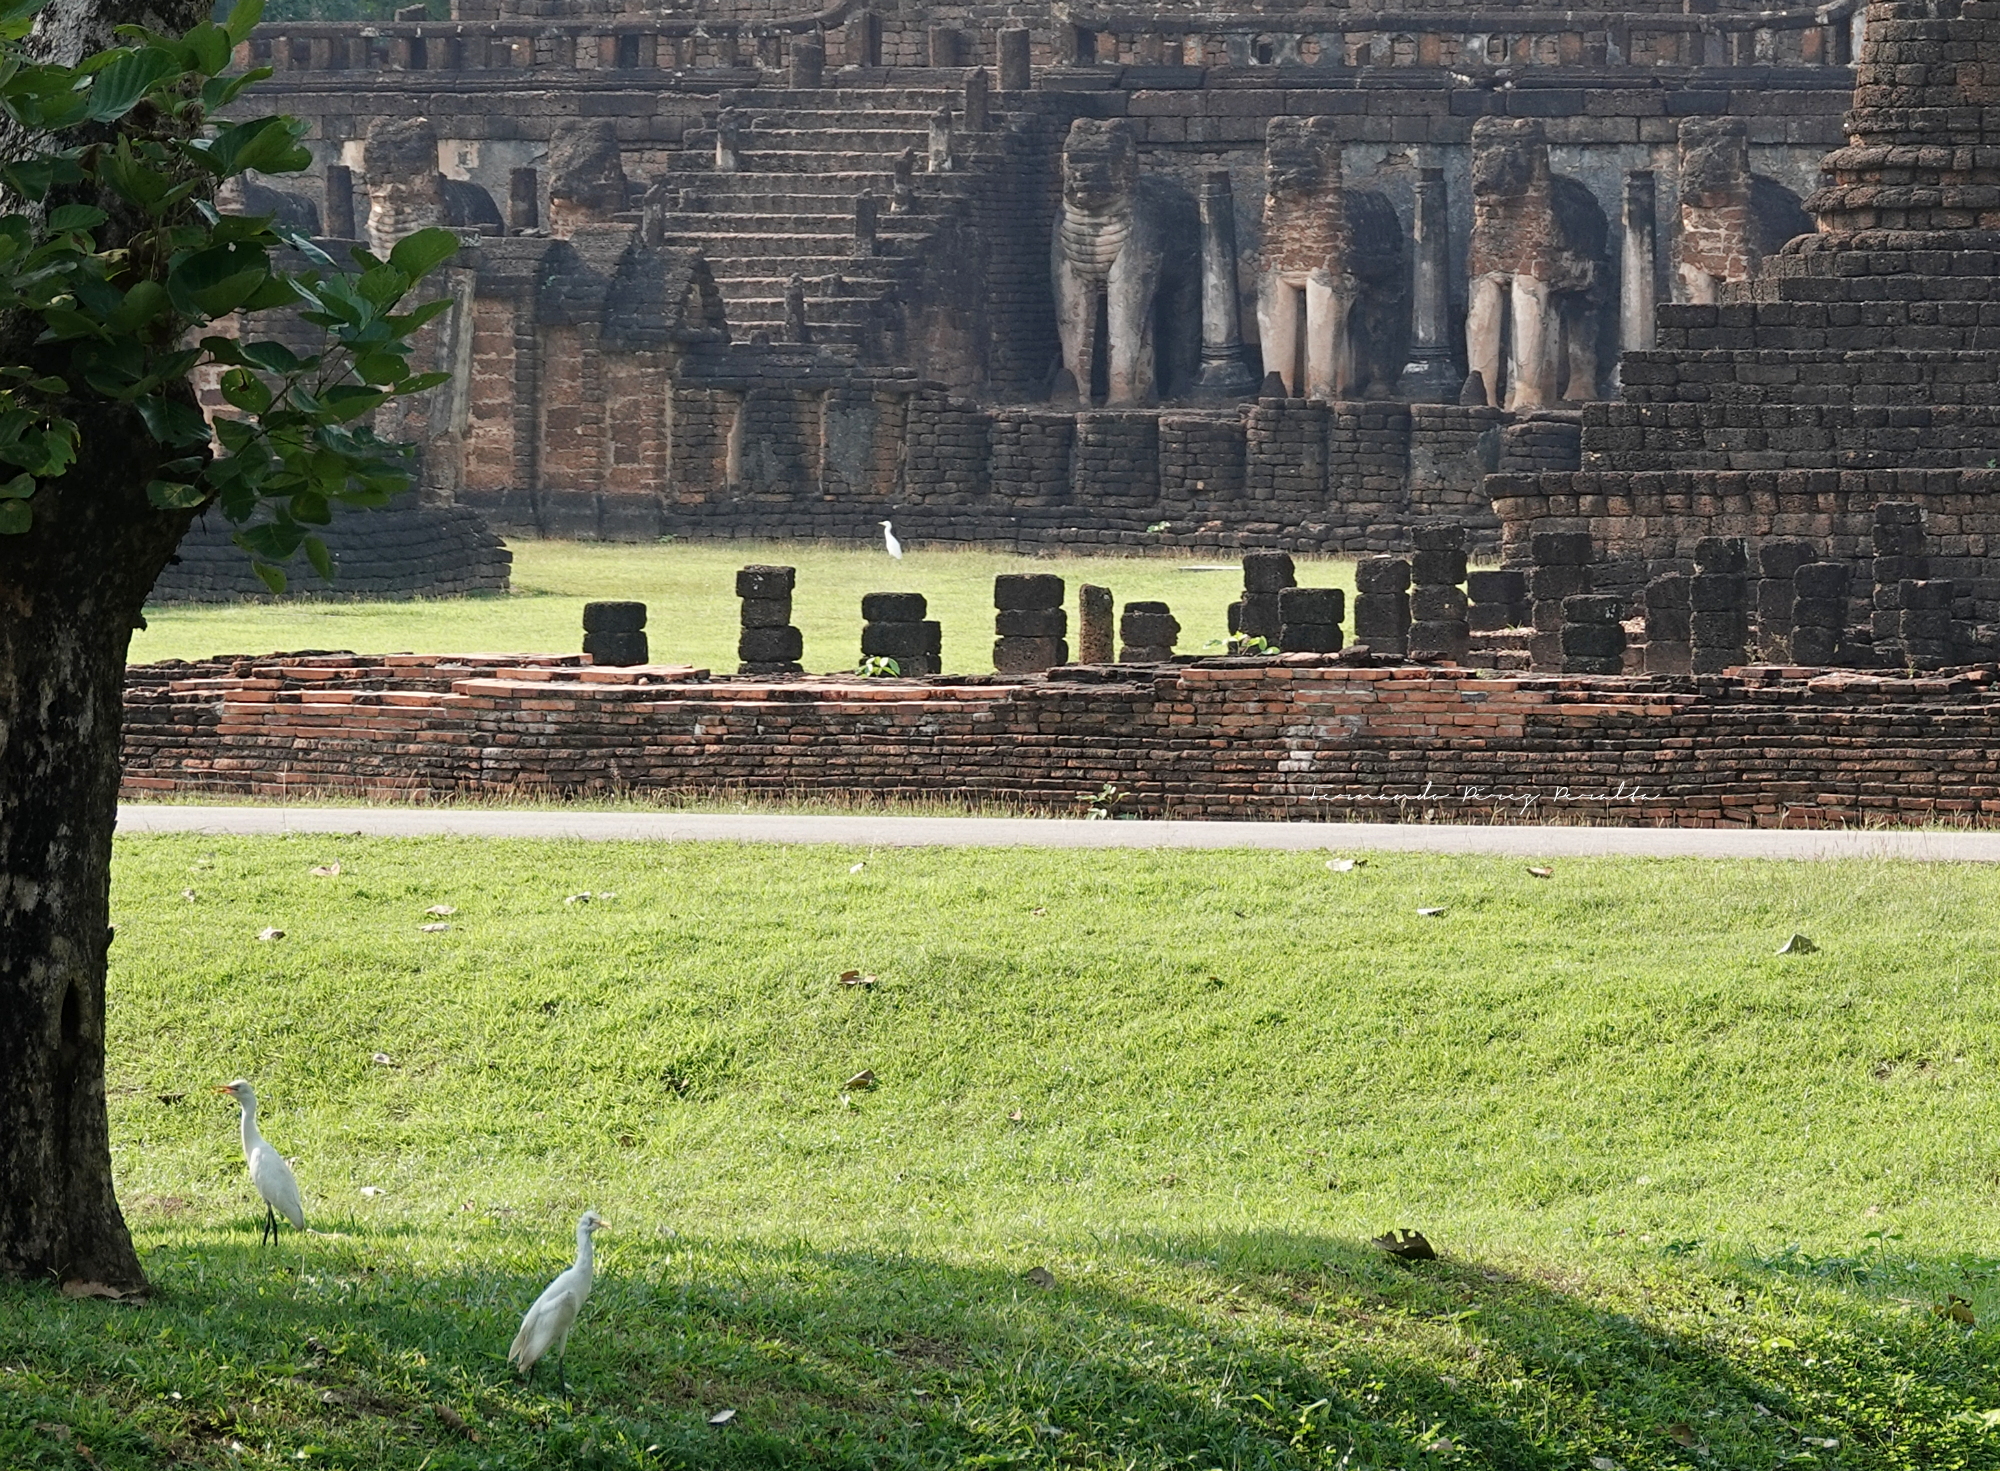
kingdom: Animalia
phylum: Chordata
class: Aves
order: Pelecaniformes
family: Ardeidae
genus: Bubulcus
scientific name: Bubulcus coromandus
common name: Eastern cattle egret
